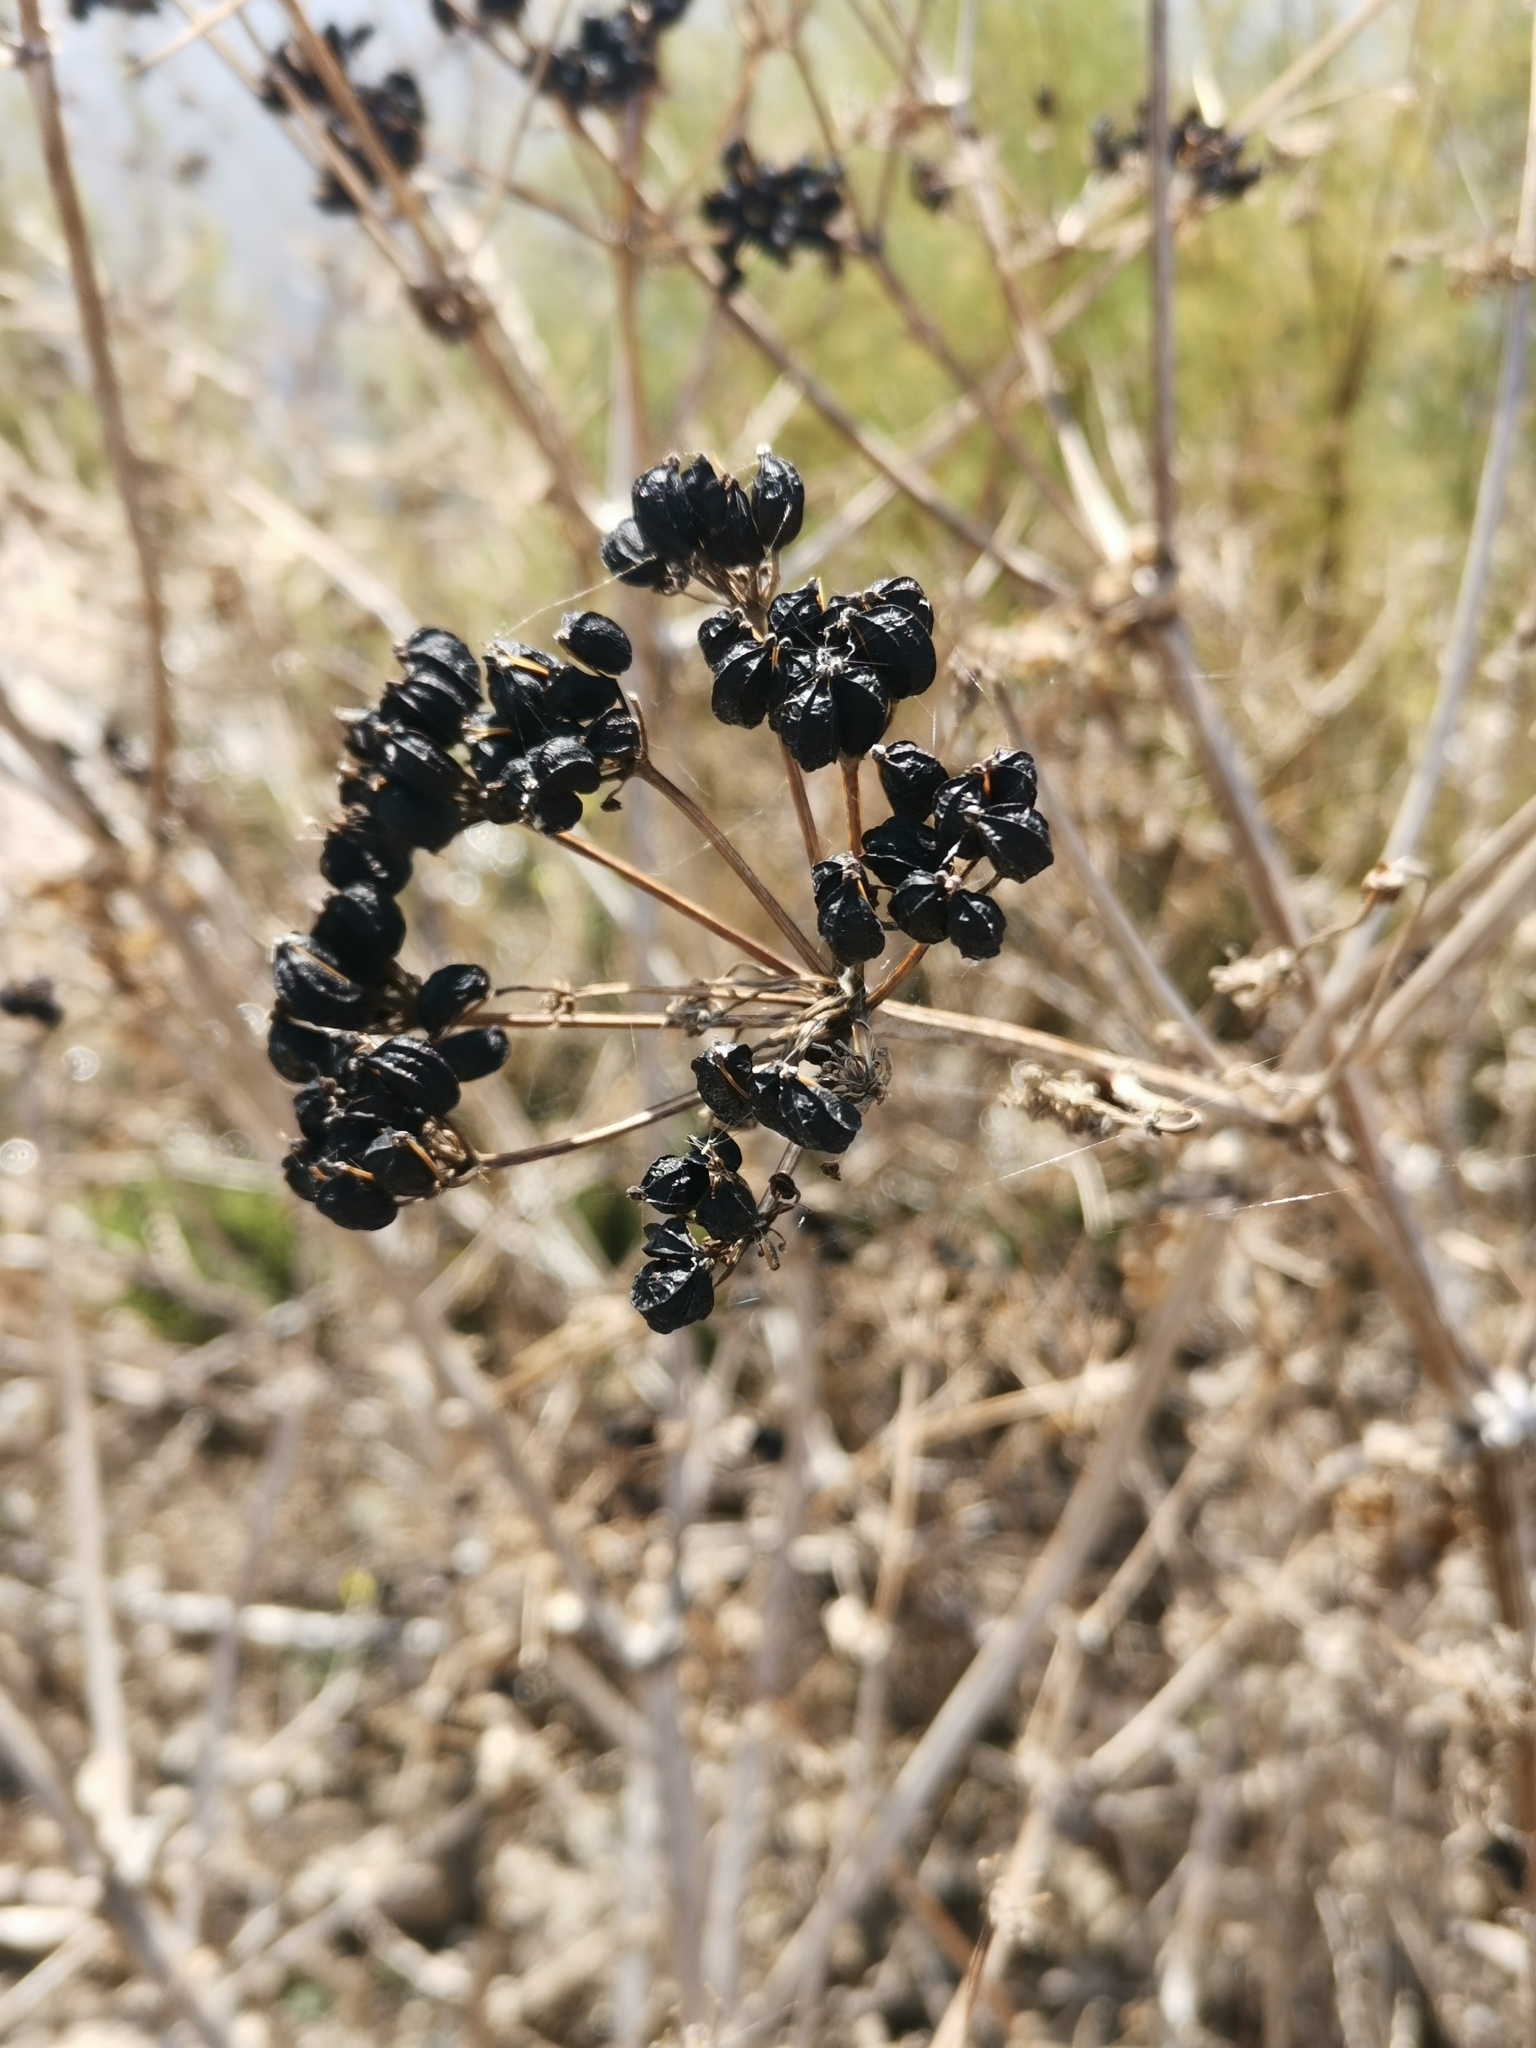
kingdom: Plantae
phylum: Tracheophyta
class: Magnoliopsida
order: Apiales
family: Apiaceae
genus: Smyrnium
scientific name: Smyrnium olusatrum
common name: Alexanders
